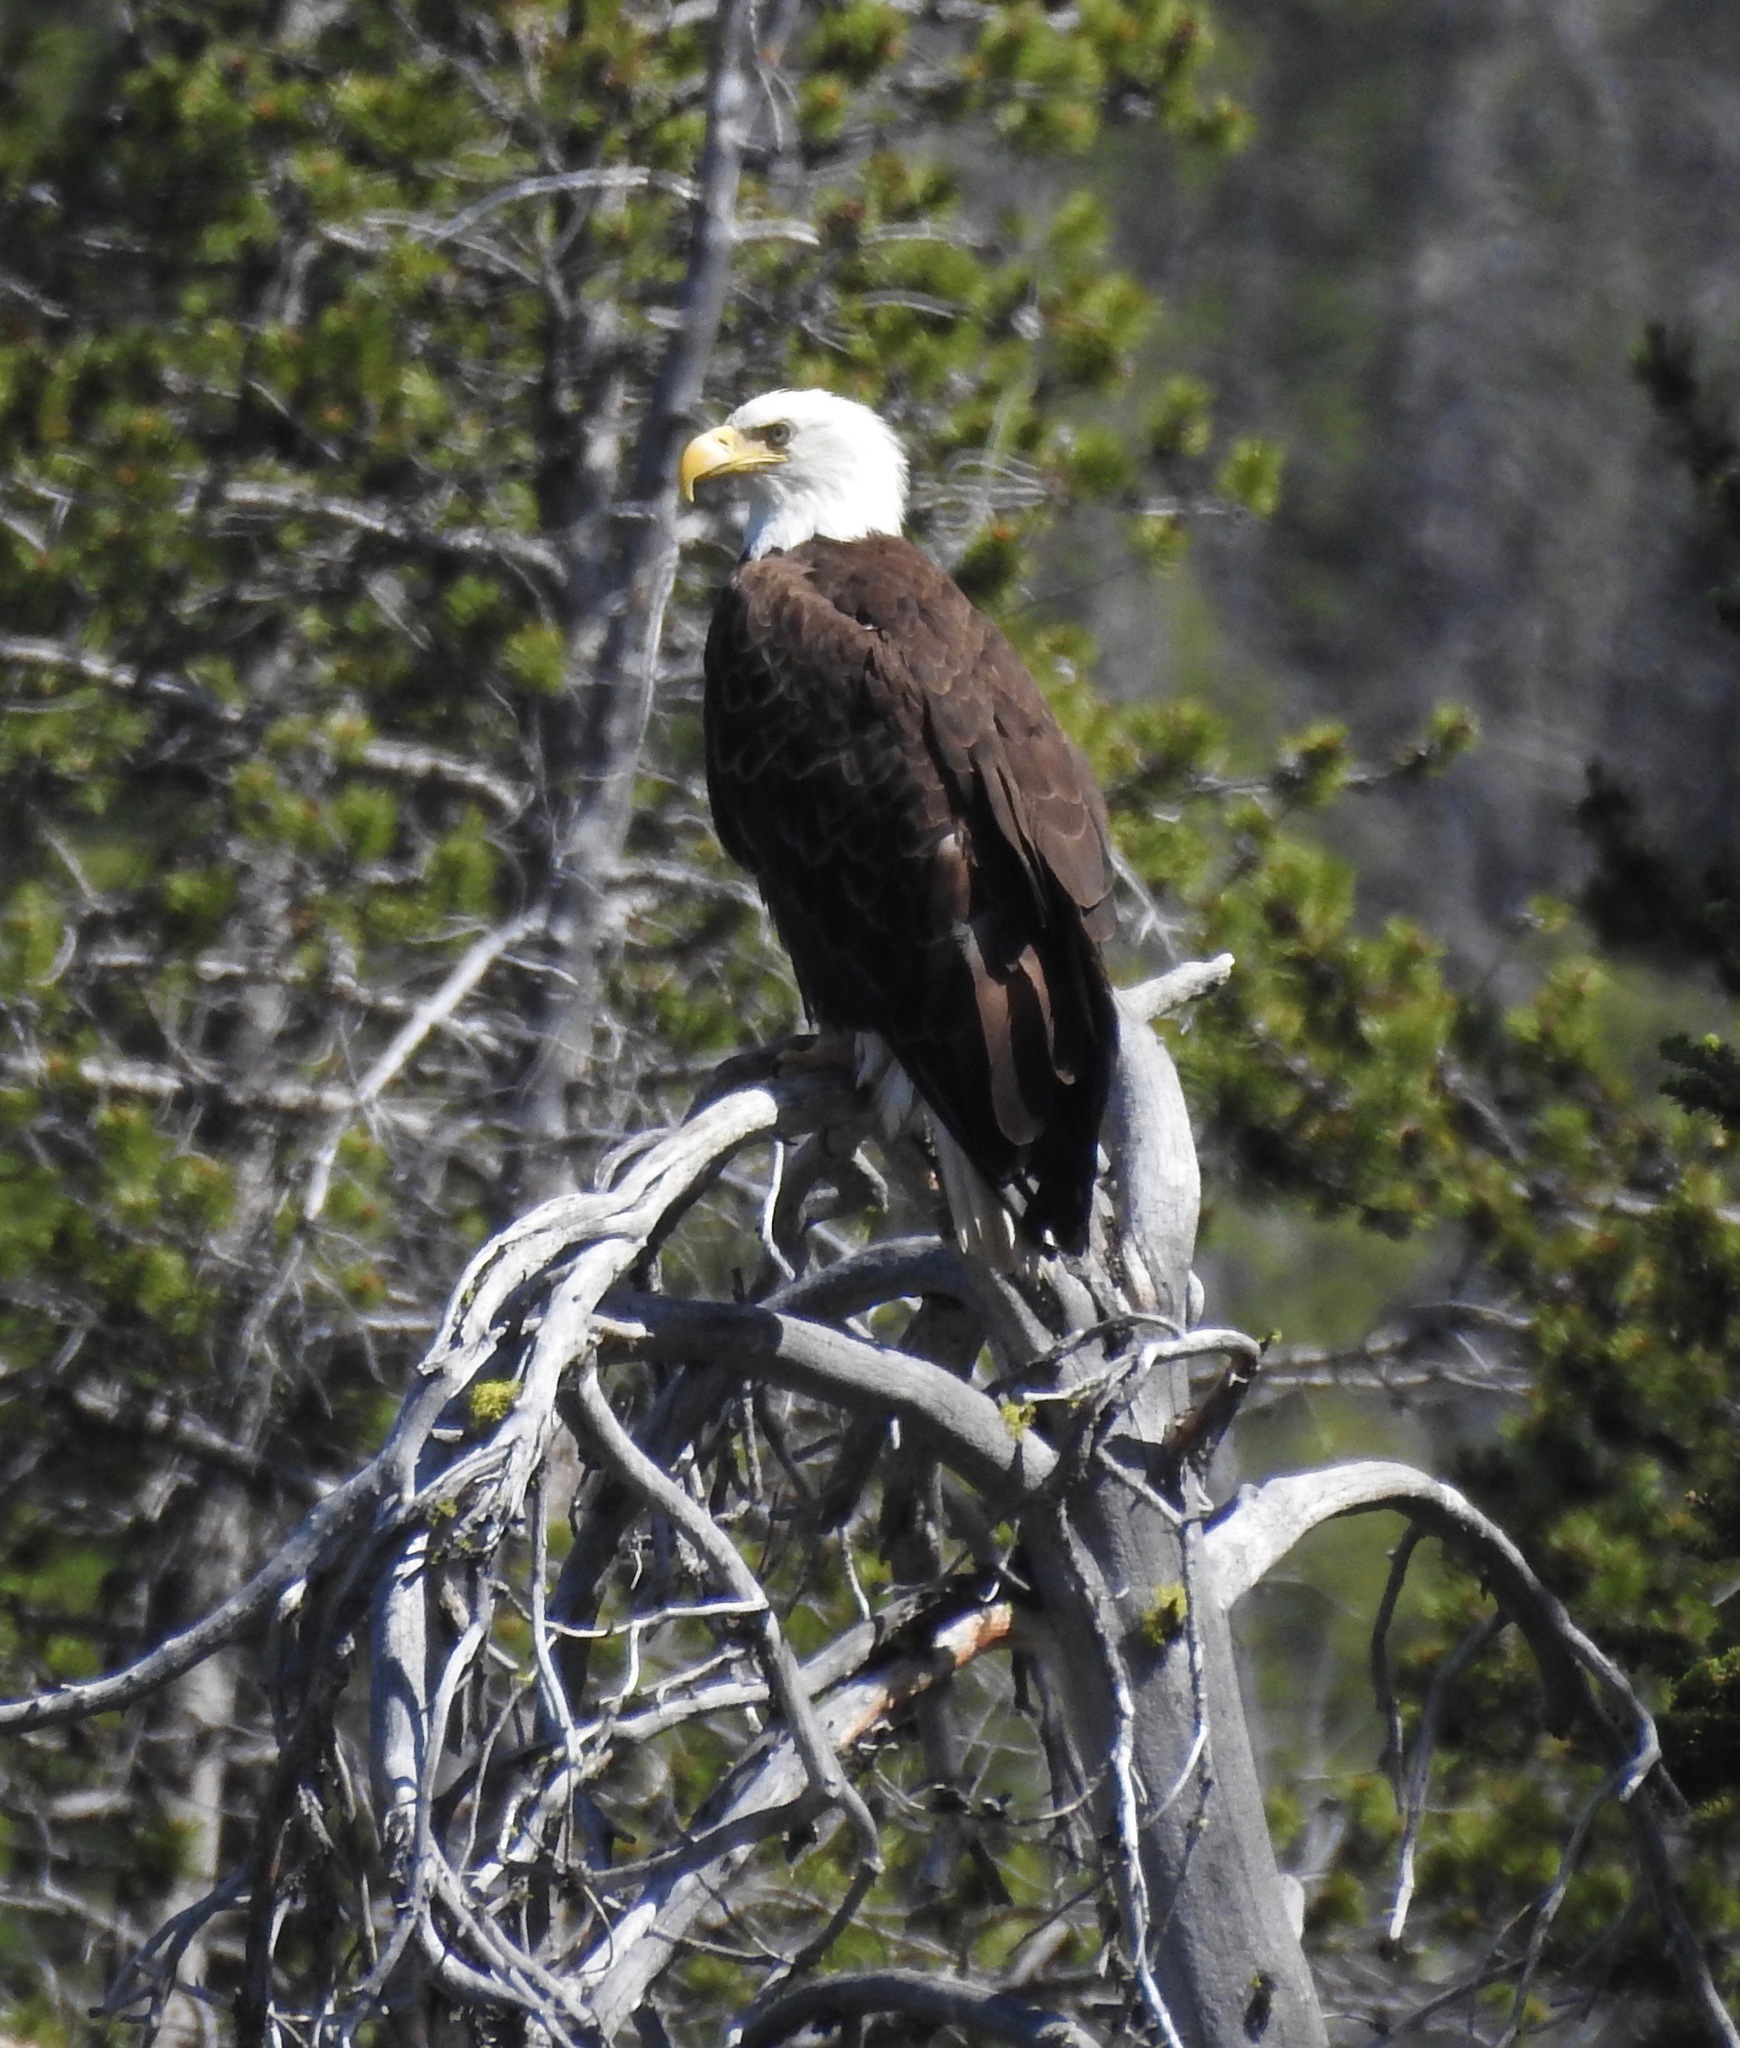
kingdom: Animalia
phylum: Chordata
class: Aves
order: Accipitriformes
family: Accipitridae
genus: Haliaeetus
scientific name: Haliaeetus leucocephalus
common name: Bald eagle
